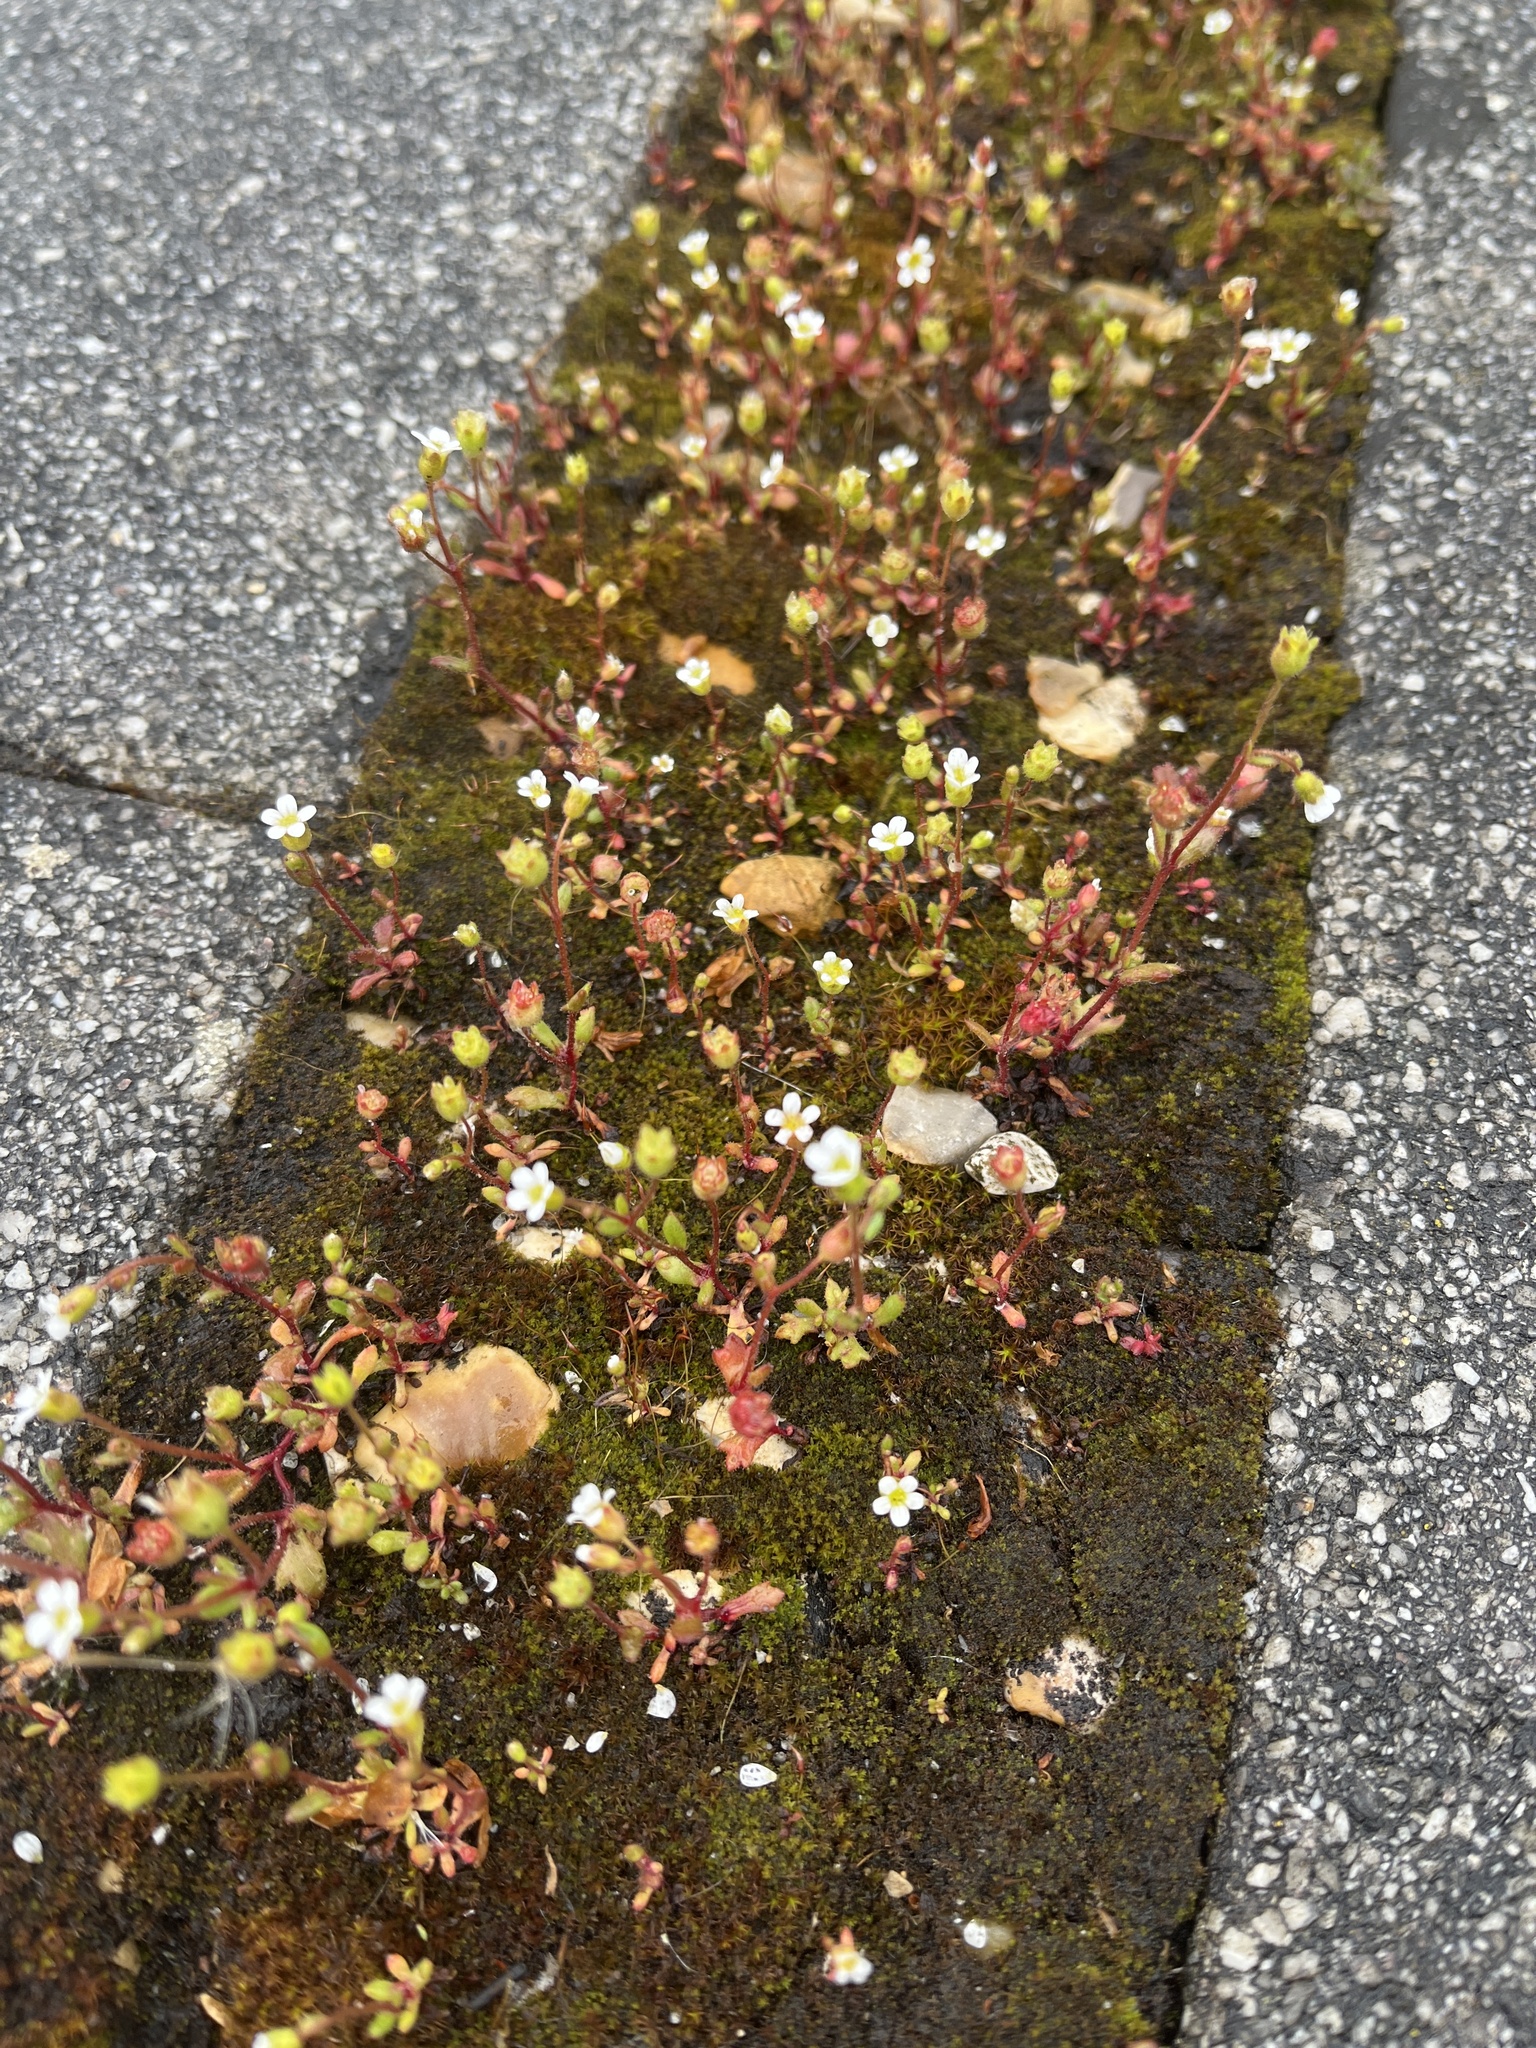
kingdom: Plantae
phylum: Tracheophyta
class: Magnoliopsida
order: Saxifragales
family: Saxifragaceae
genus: Saxifraga
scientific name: Saxifraga tridactylites
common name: Rue-leaved saxifrage
